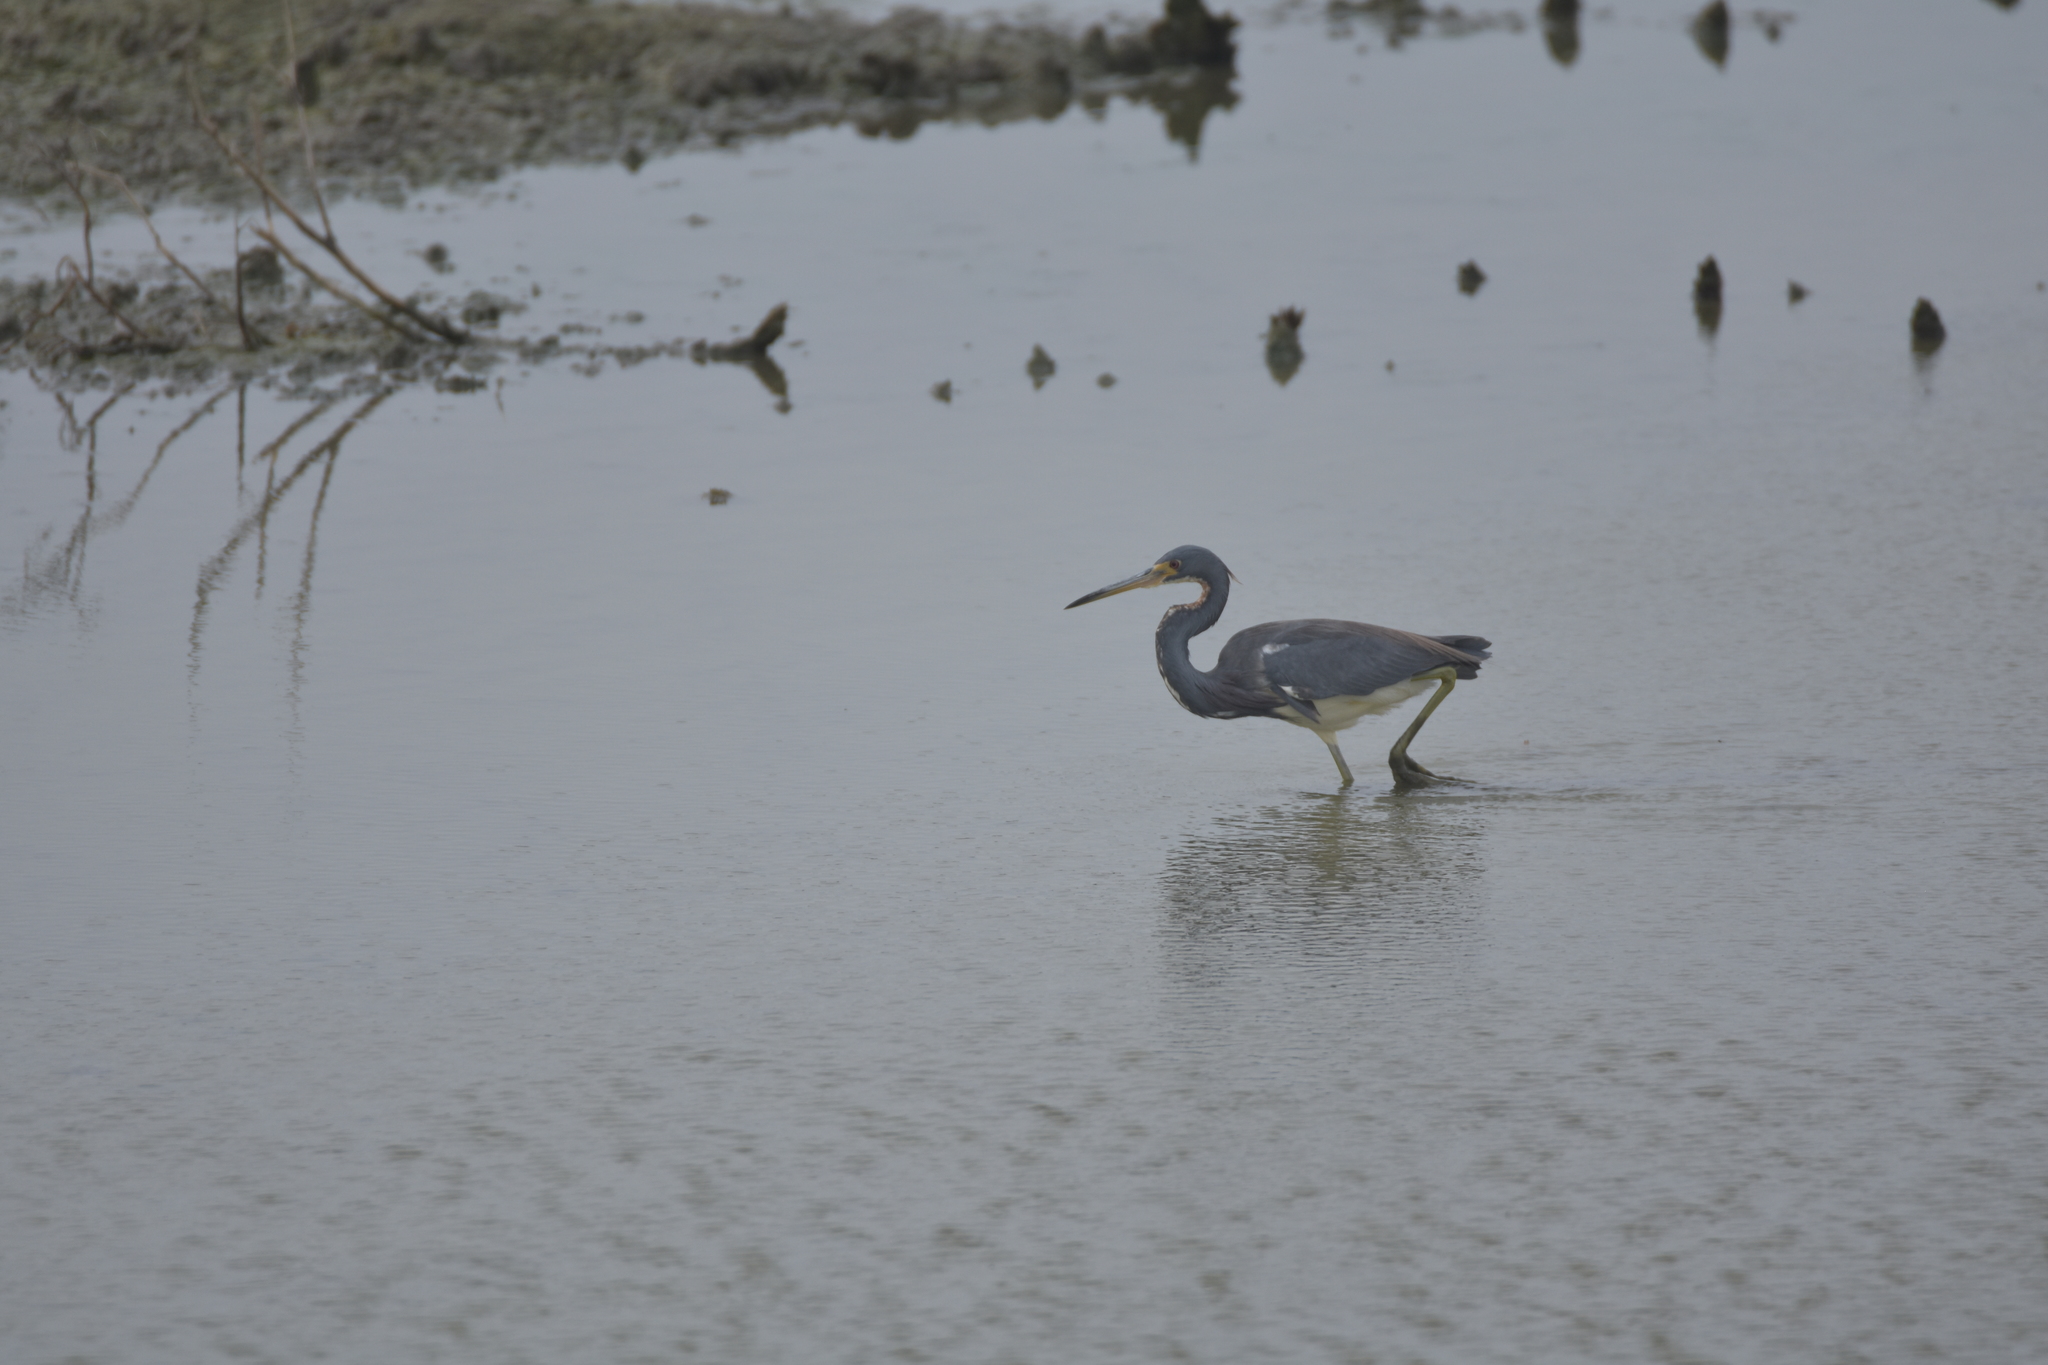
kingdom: Animalia
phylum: Chordata
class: Aves
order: Pelecaniformes
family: Ardeidae
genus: Egretta
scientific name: Egretta tricolor
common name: Tricolored heron
